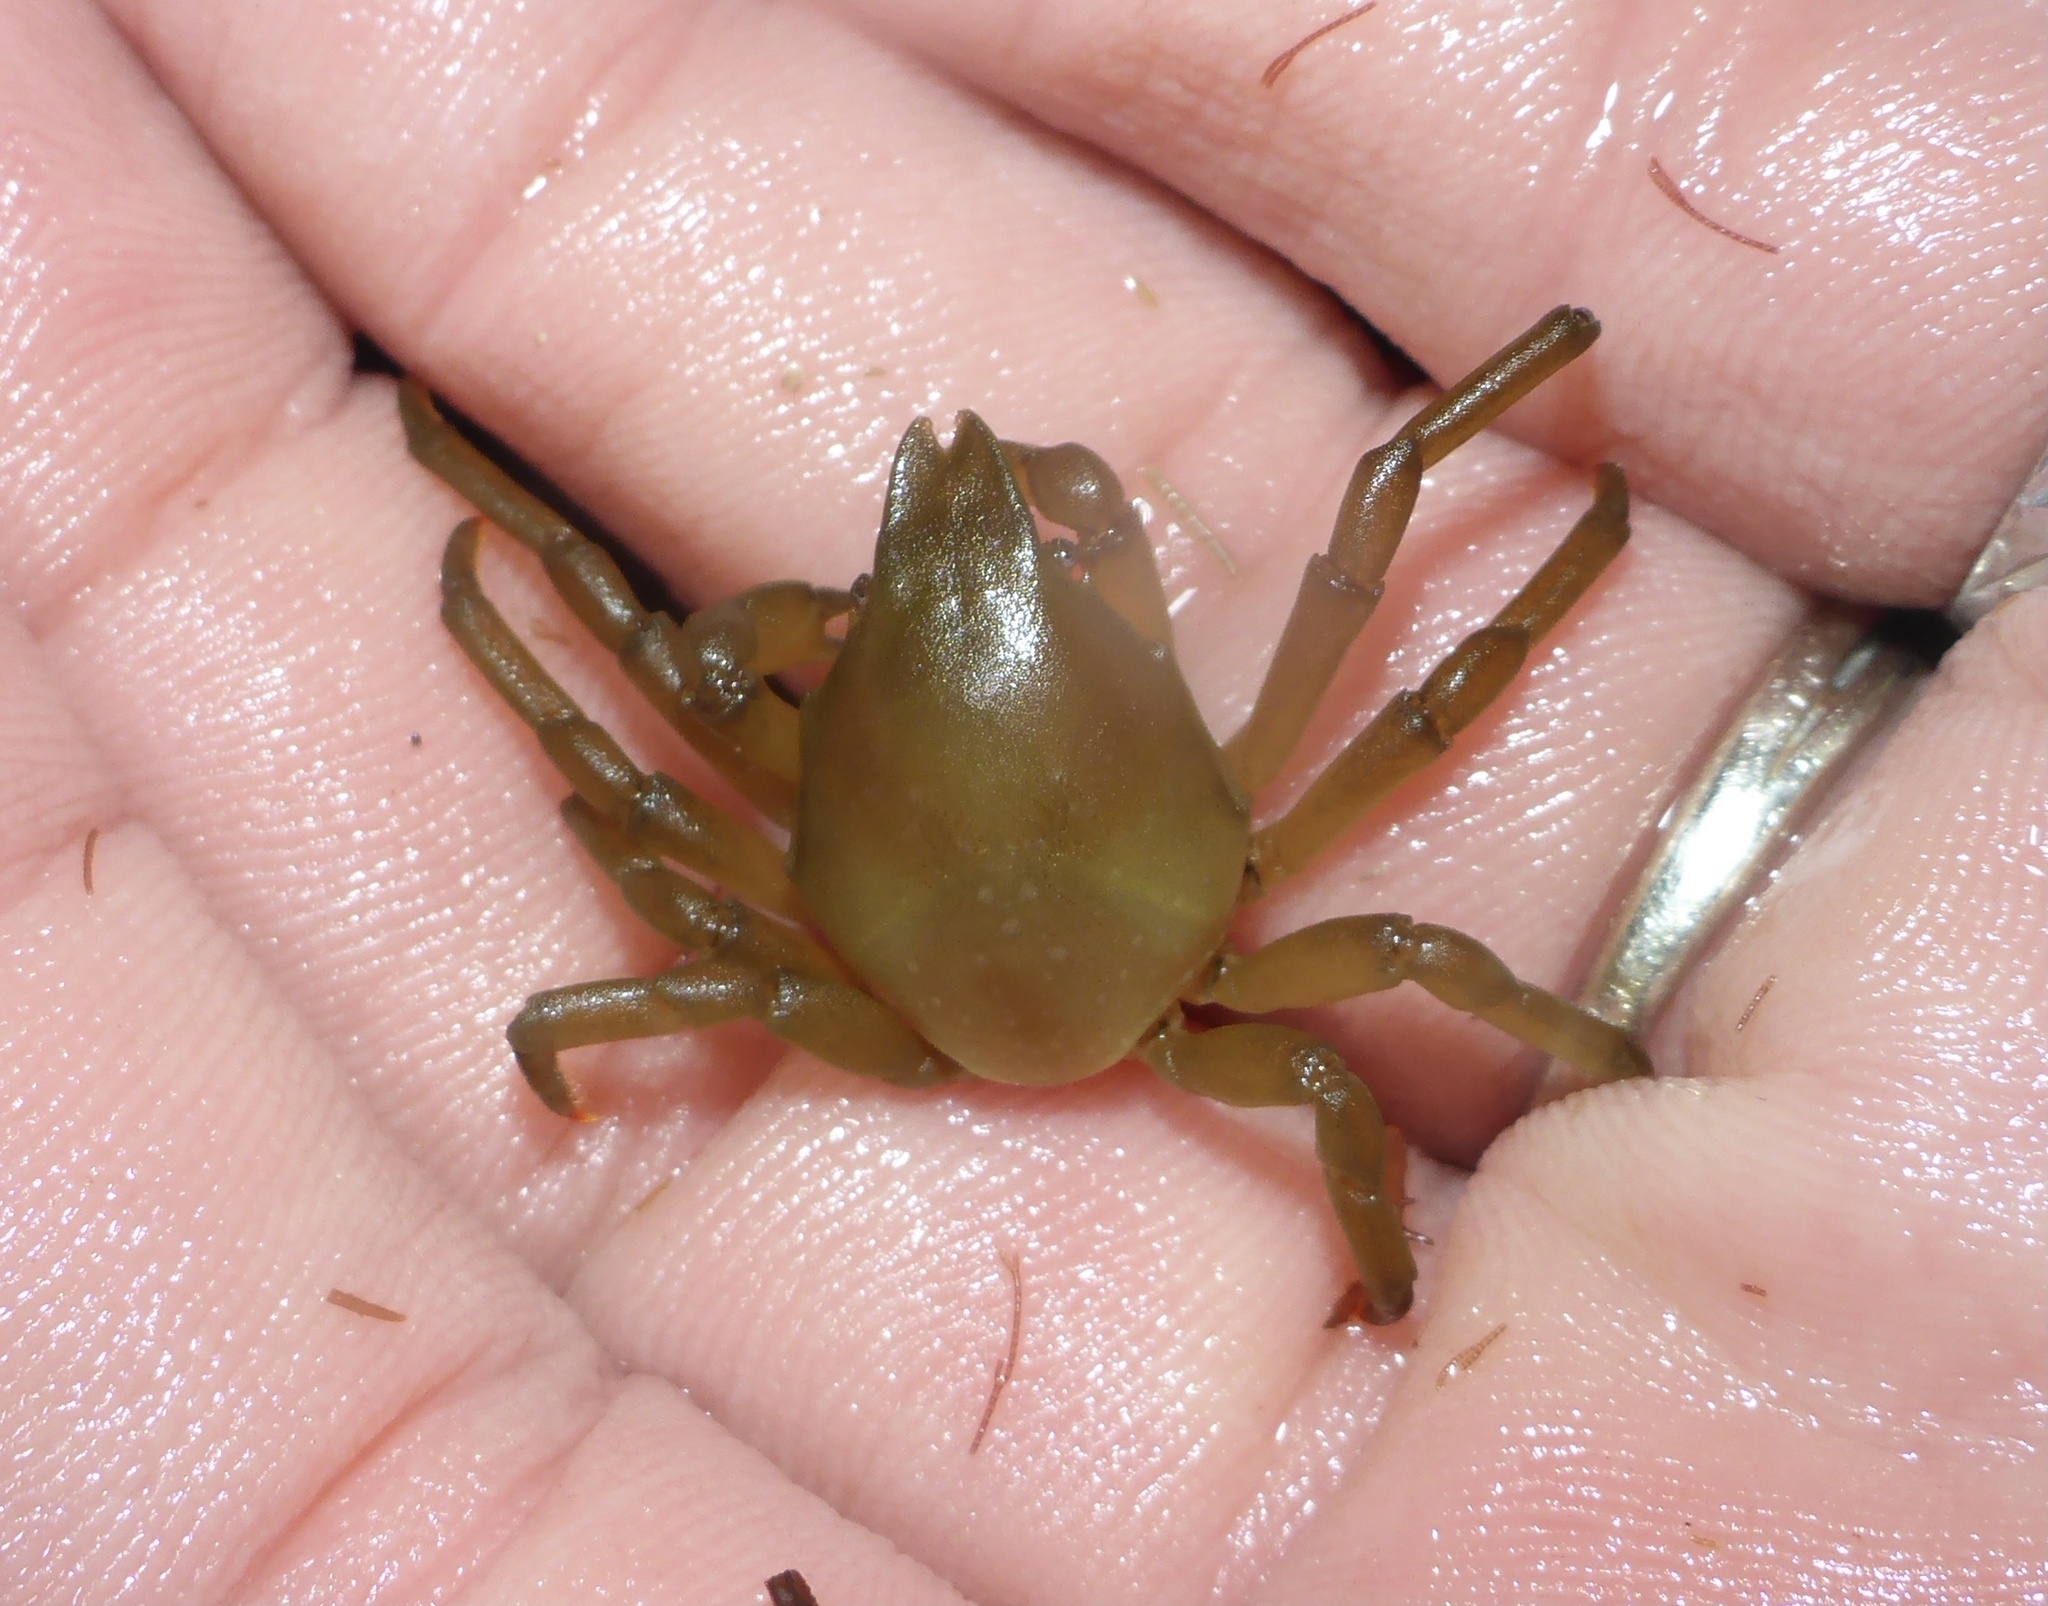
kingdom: Animalia
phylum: Arthropoda
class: Malacostraca
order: Decapoda
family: Epialtidae
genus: Taliepus
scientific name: Taliepus nuttallii
